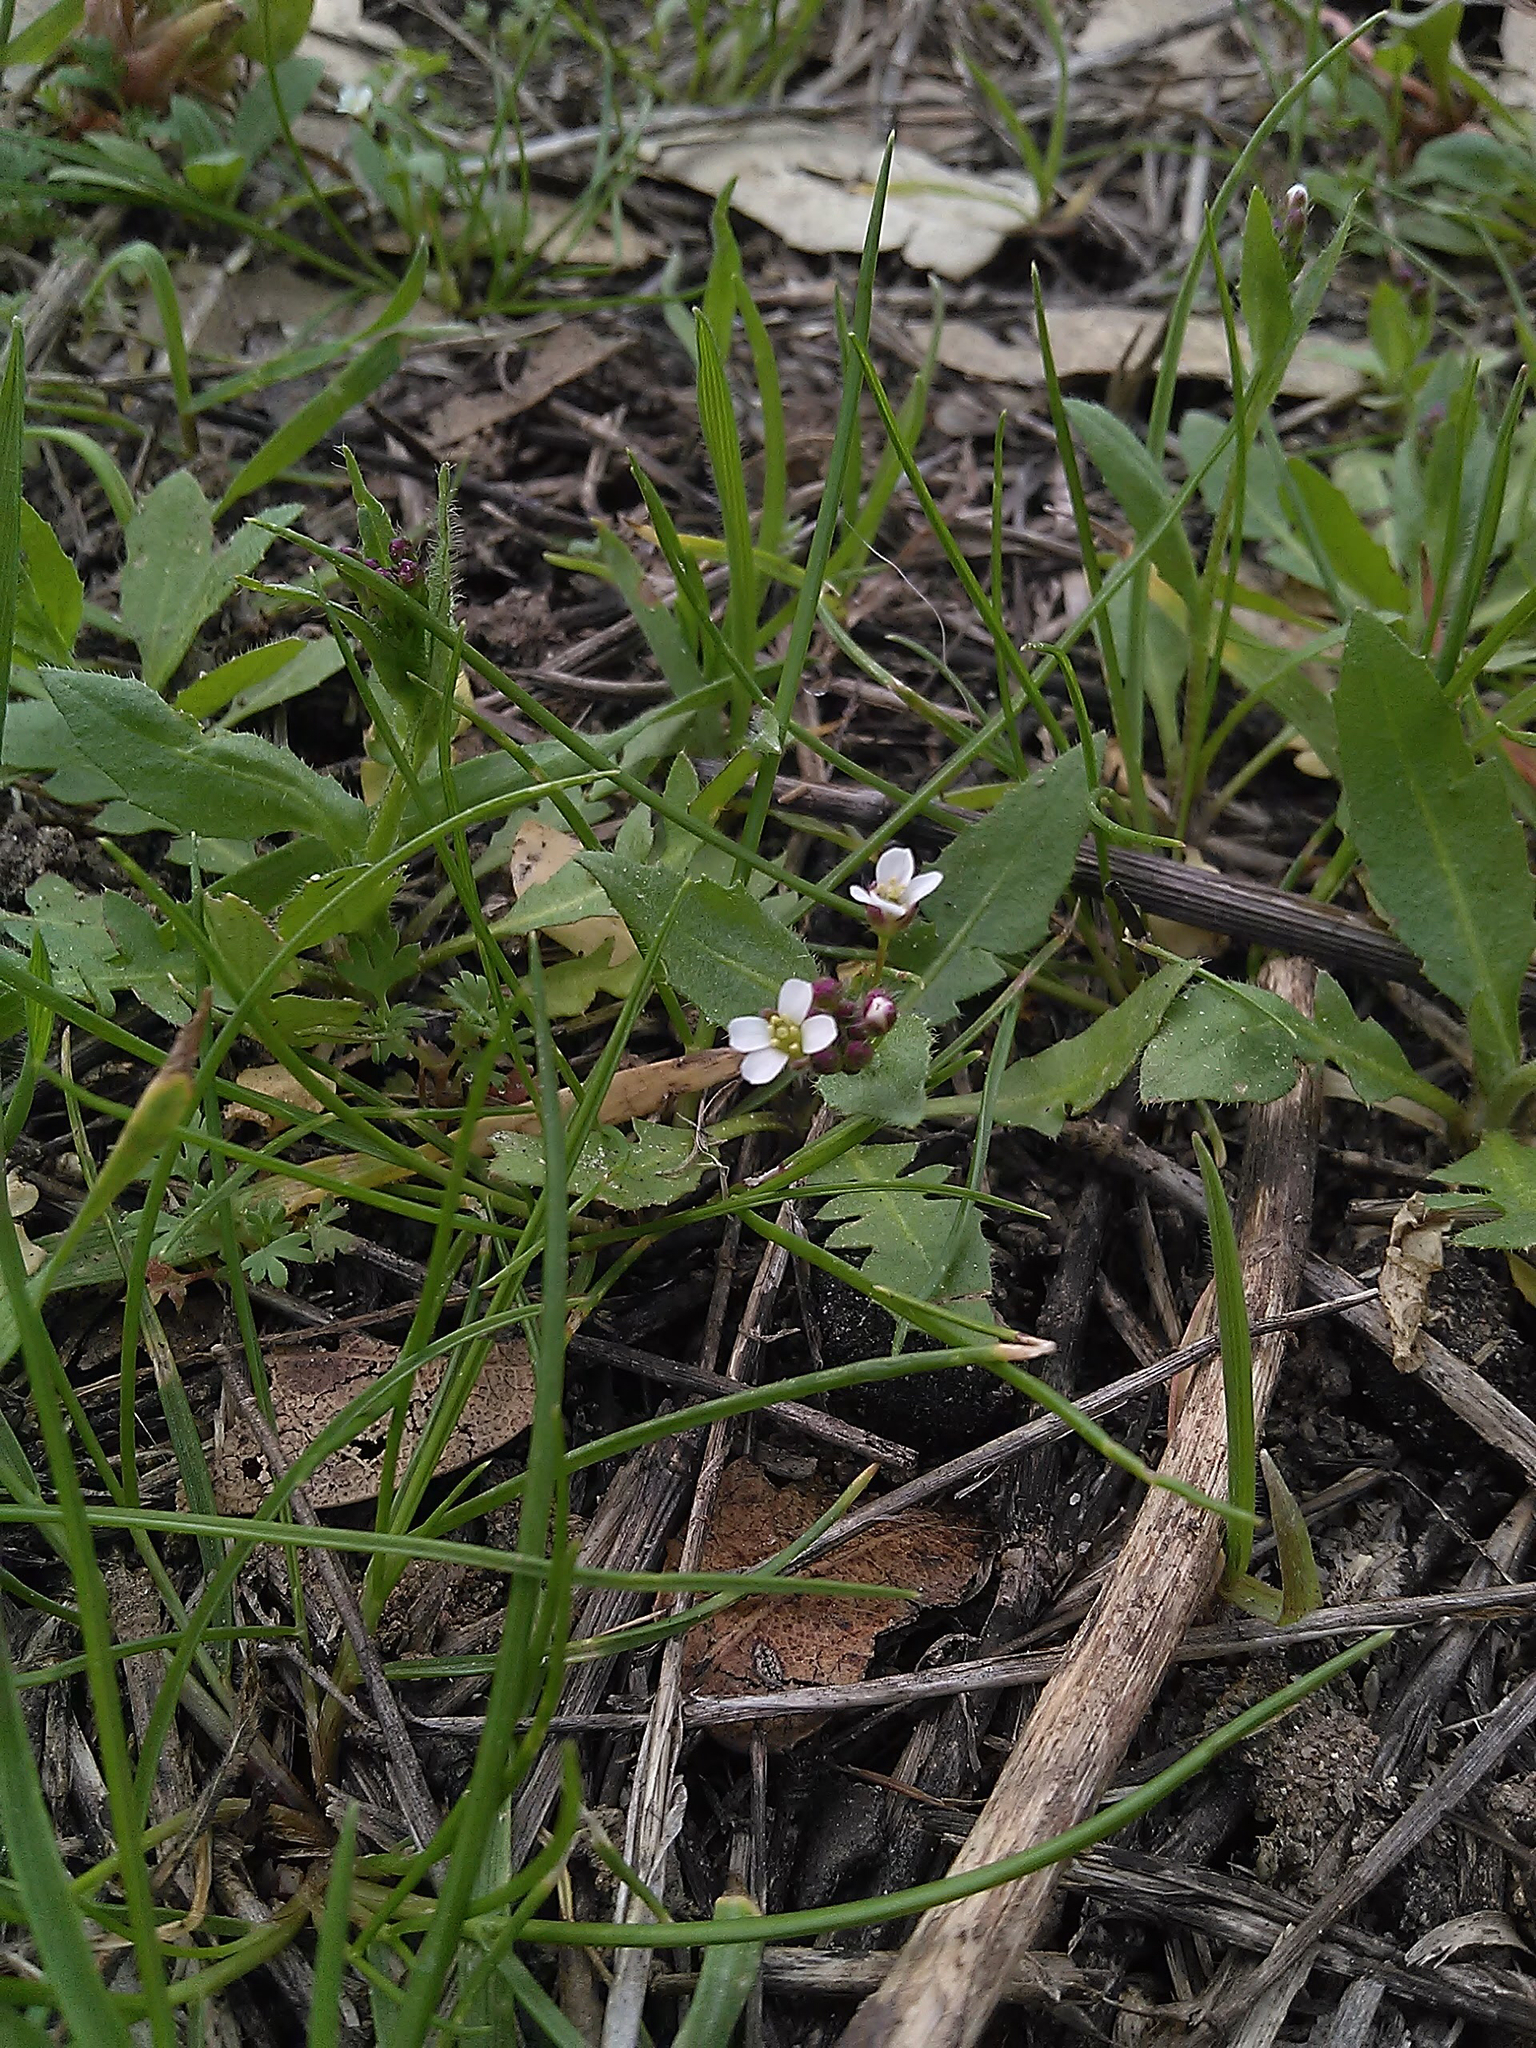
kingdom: Plantae
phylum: Tracheophyta
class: Magnoliopsida
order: Brassicales
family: Brassicaceae
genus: Capsella
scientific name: Capsella bursa-pastoris
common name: Shepherd's purse
